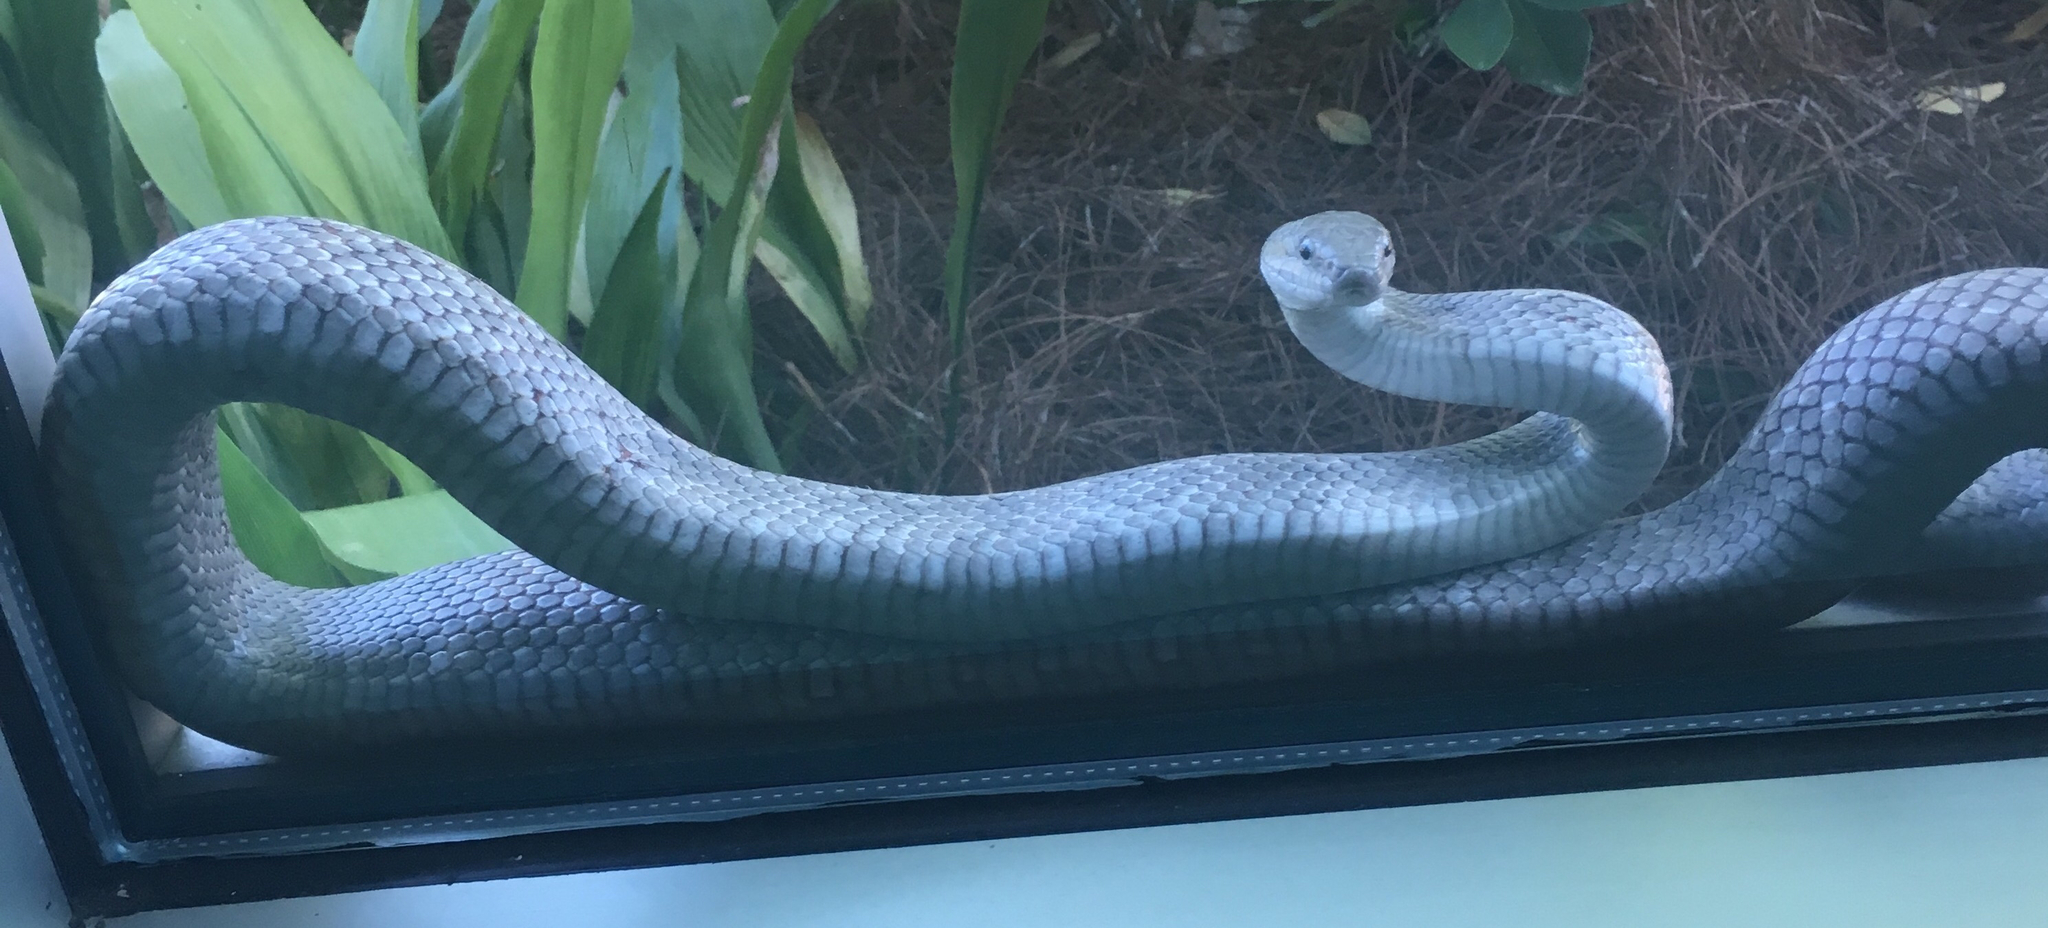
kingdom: Animalia
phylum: Chordata
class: Squamata
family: Colubridae
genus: Pantherophis
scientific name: Pantherophis spiloides
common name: Gray rat snake
